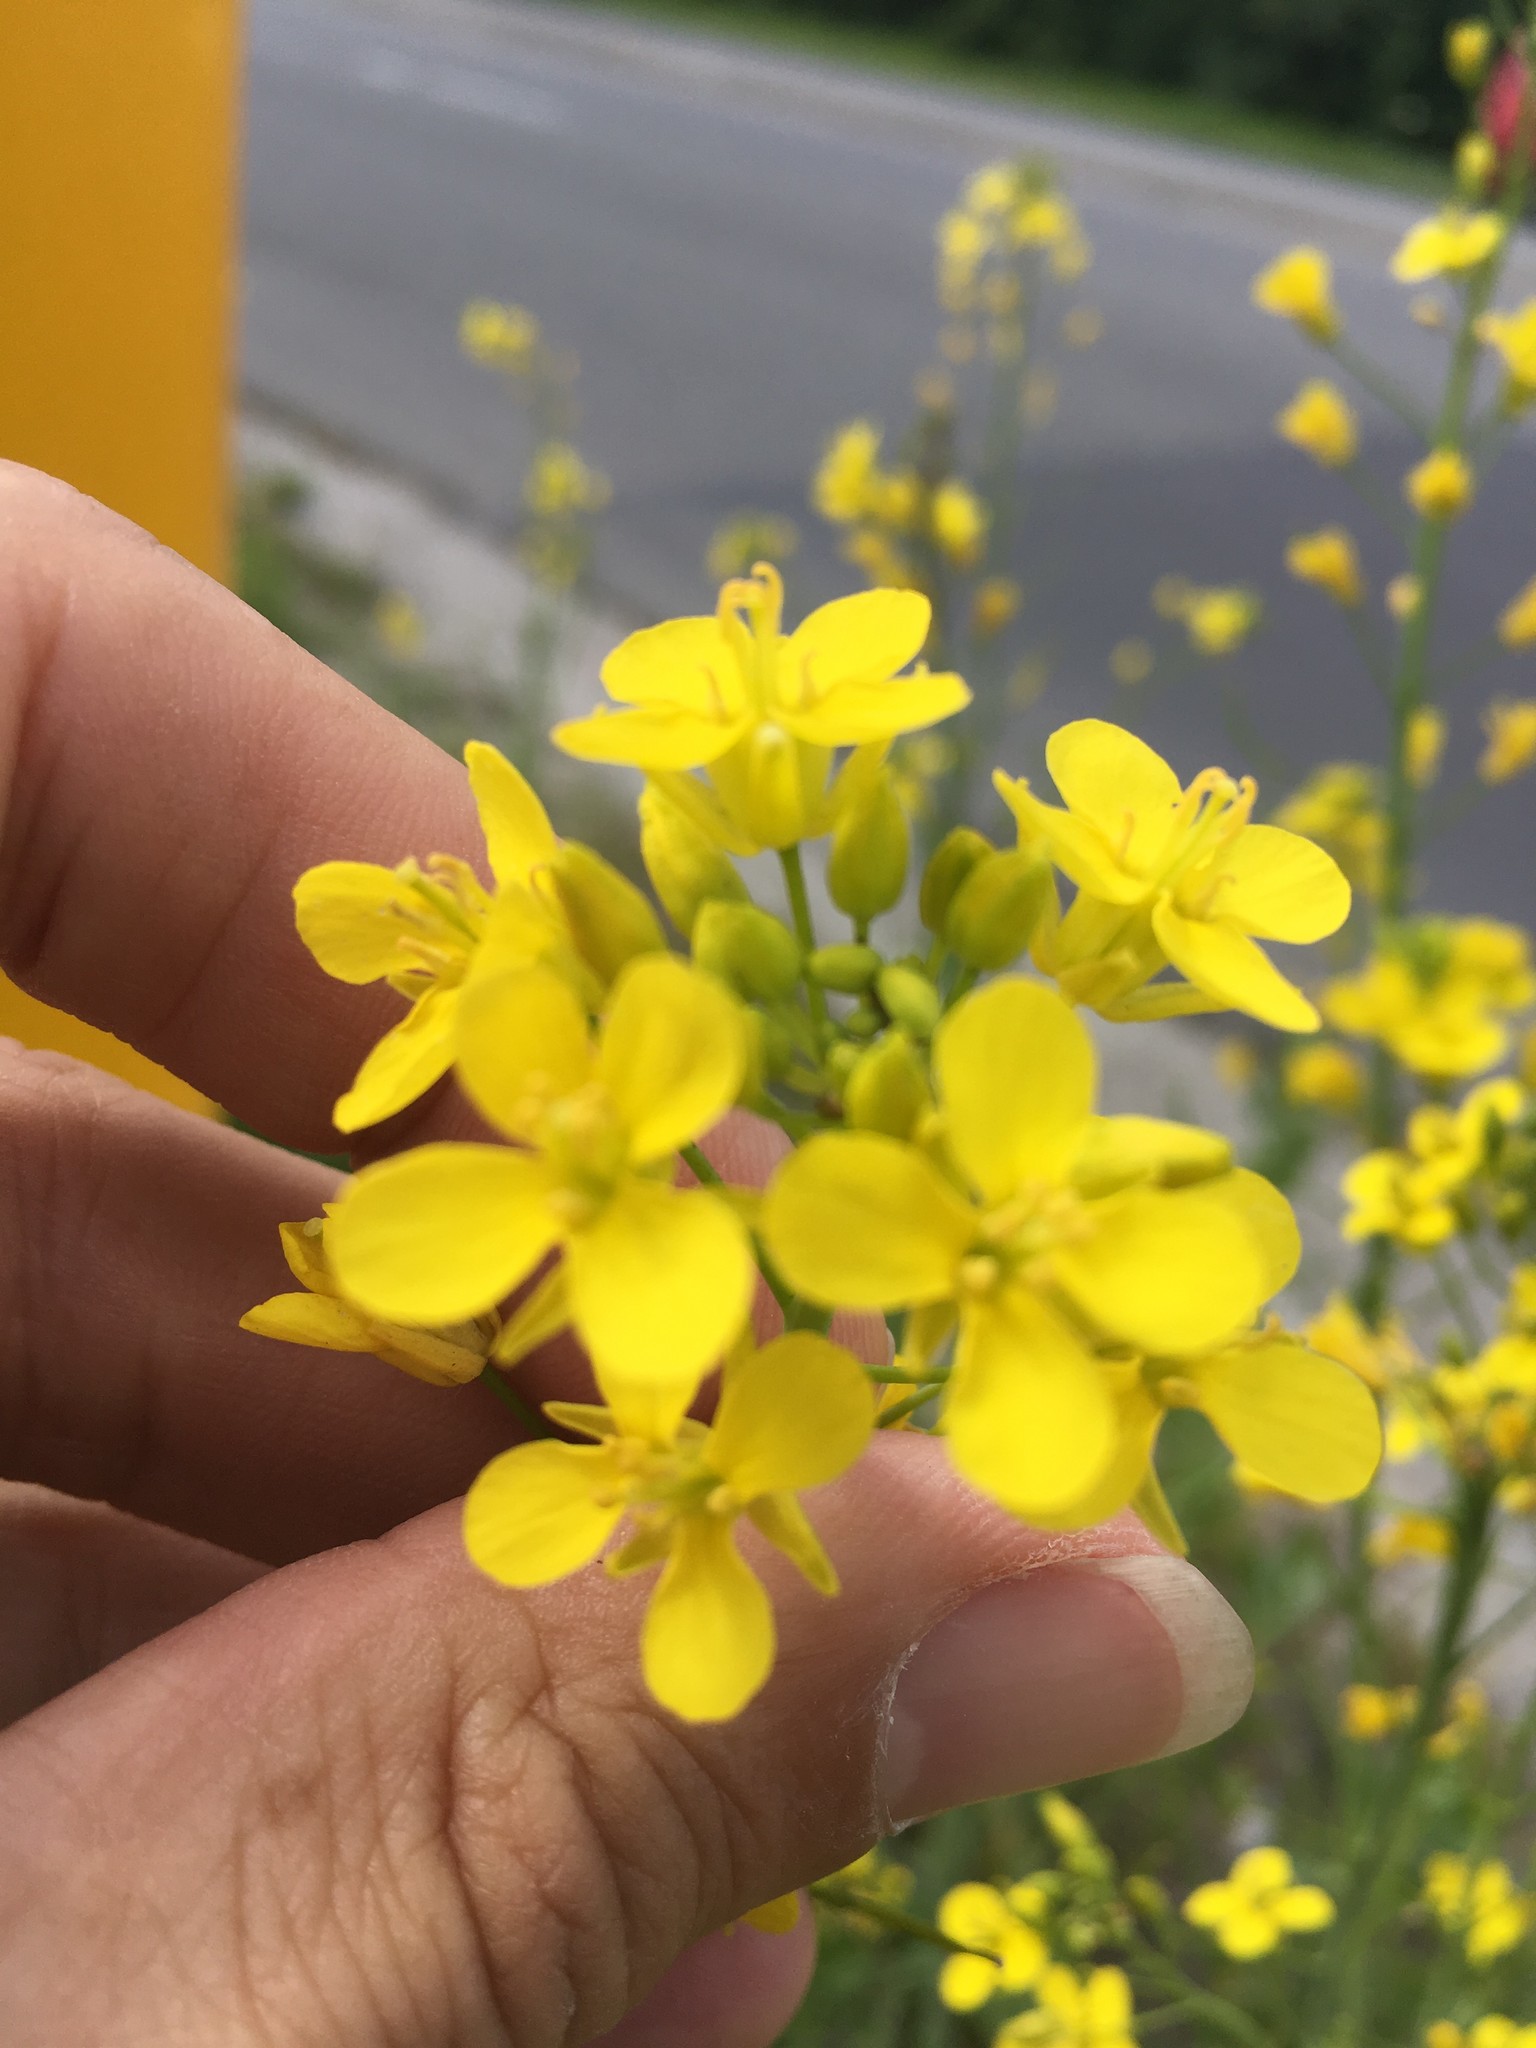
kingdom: Plantae
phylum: Tracheophyta
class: Magnoliopsida
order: Brassicales
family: Brassicaceae
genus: Brassica
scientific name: Brassica rapa
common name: Field mustard
